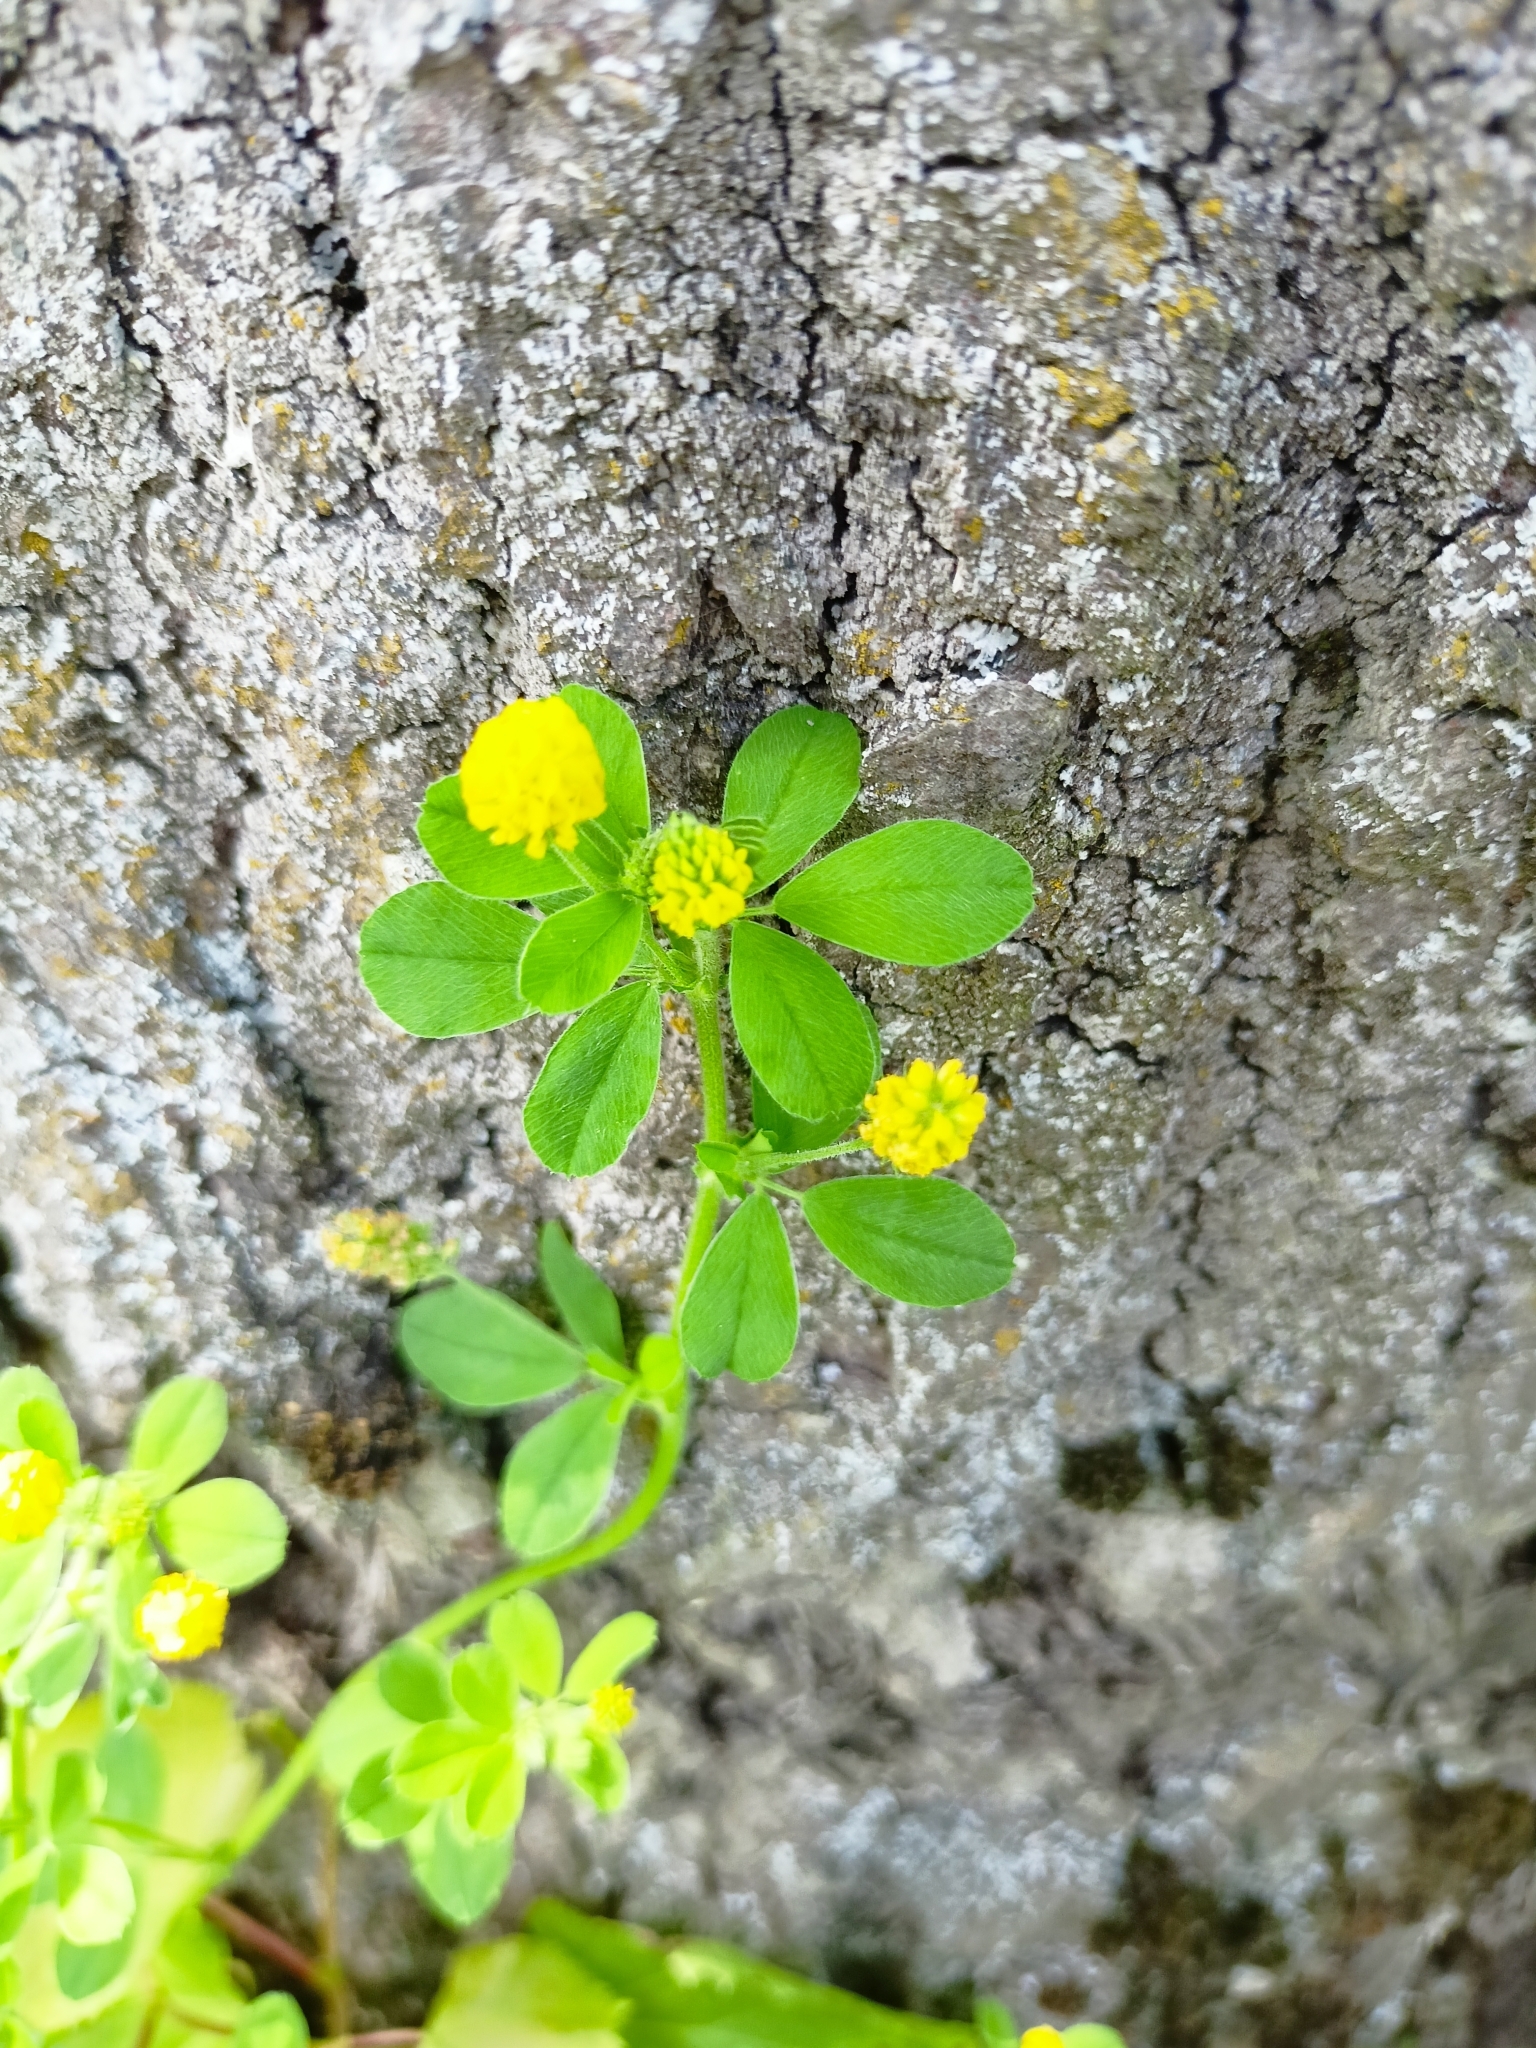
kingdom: Plantae
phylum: Tracheophyta
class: Magnoliopsida
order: Fabales
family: Fabaceae
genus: Medicago
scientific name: Medicago lupulina
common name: Black medick
